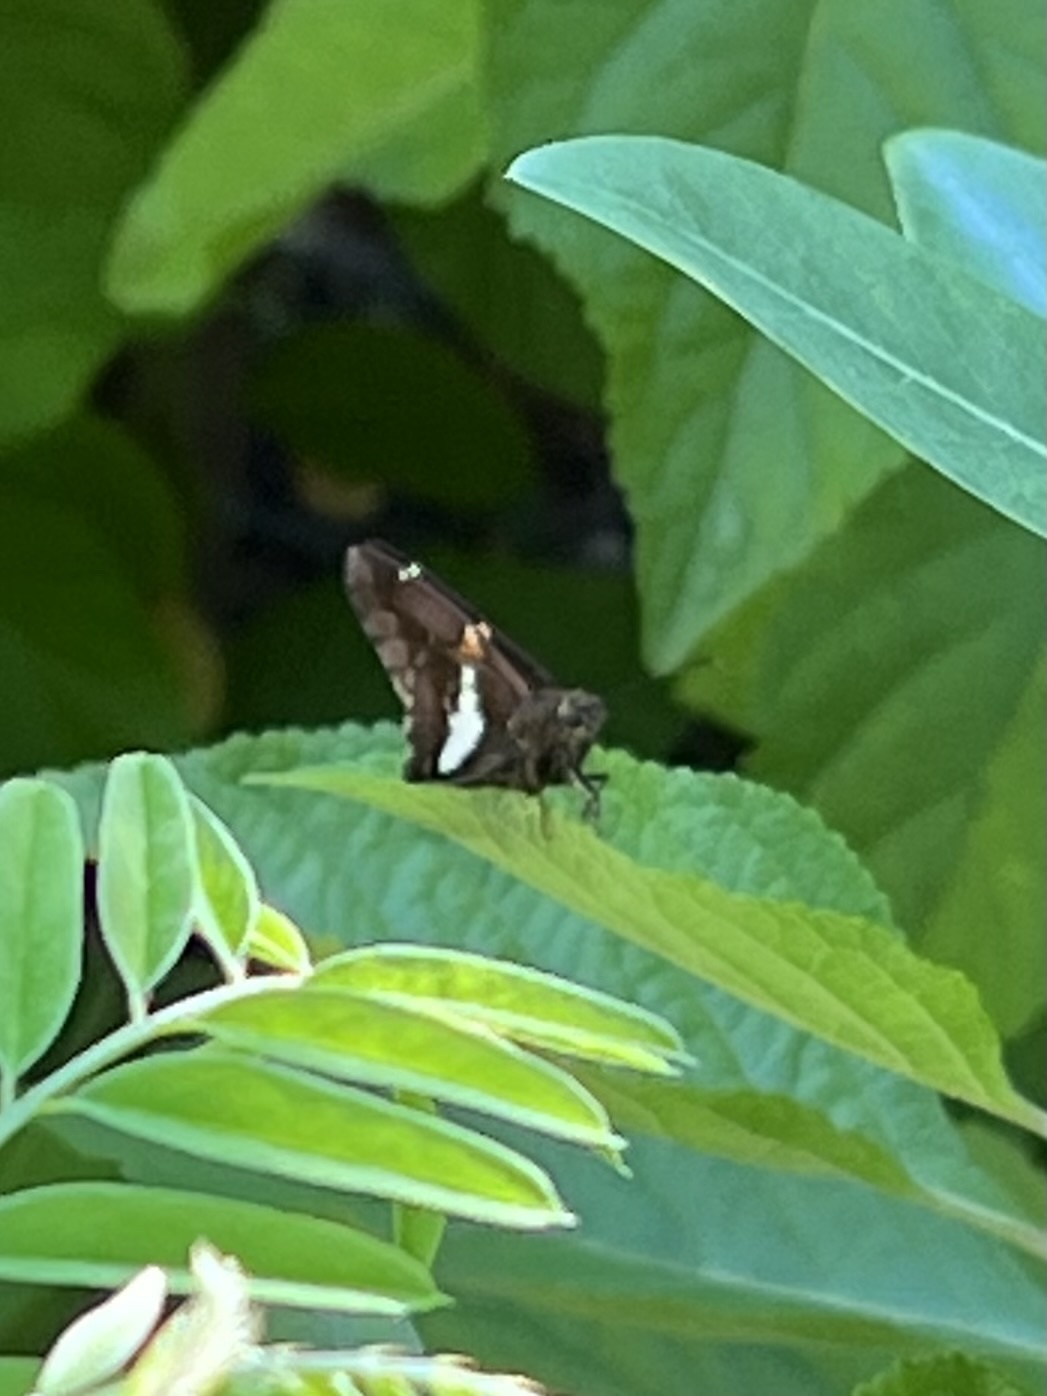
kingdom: Animalia
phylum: Arthropoda
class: Insecta
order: Lepidoptera
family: Hesperiidae
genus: Epargyreus
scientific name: Epargyreus clarus
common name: Silver-spotted skipper
